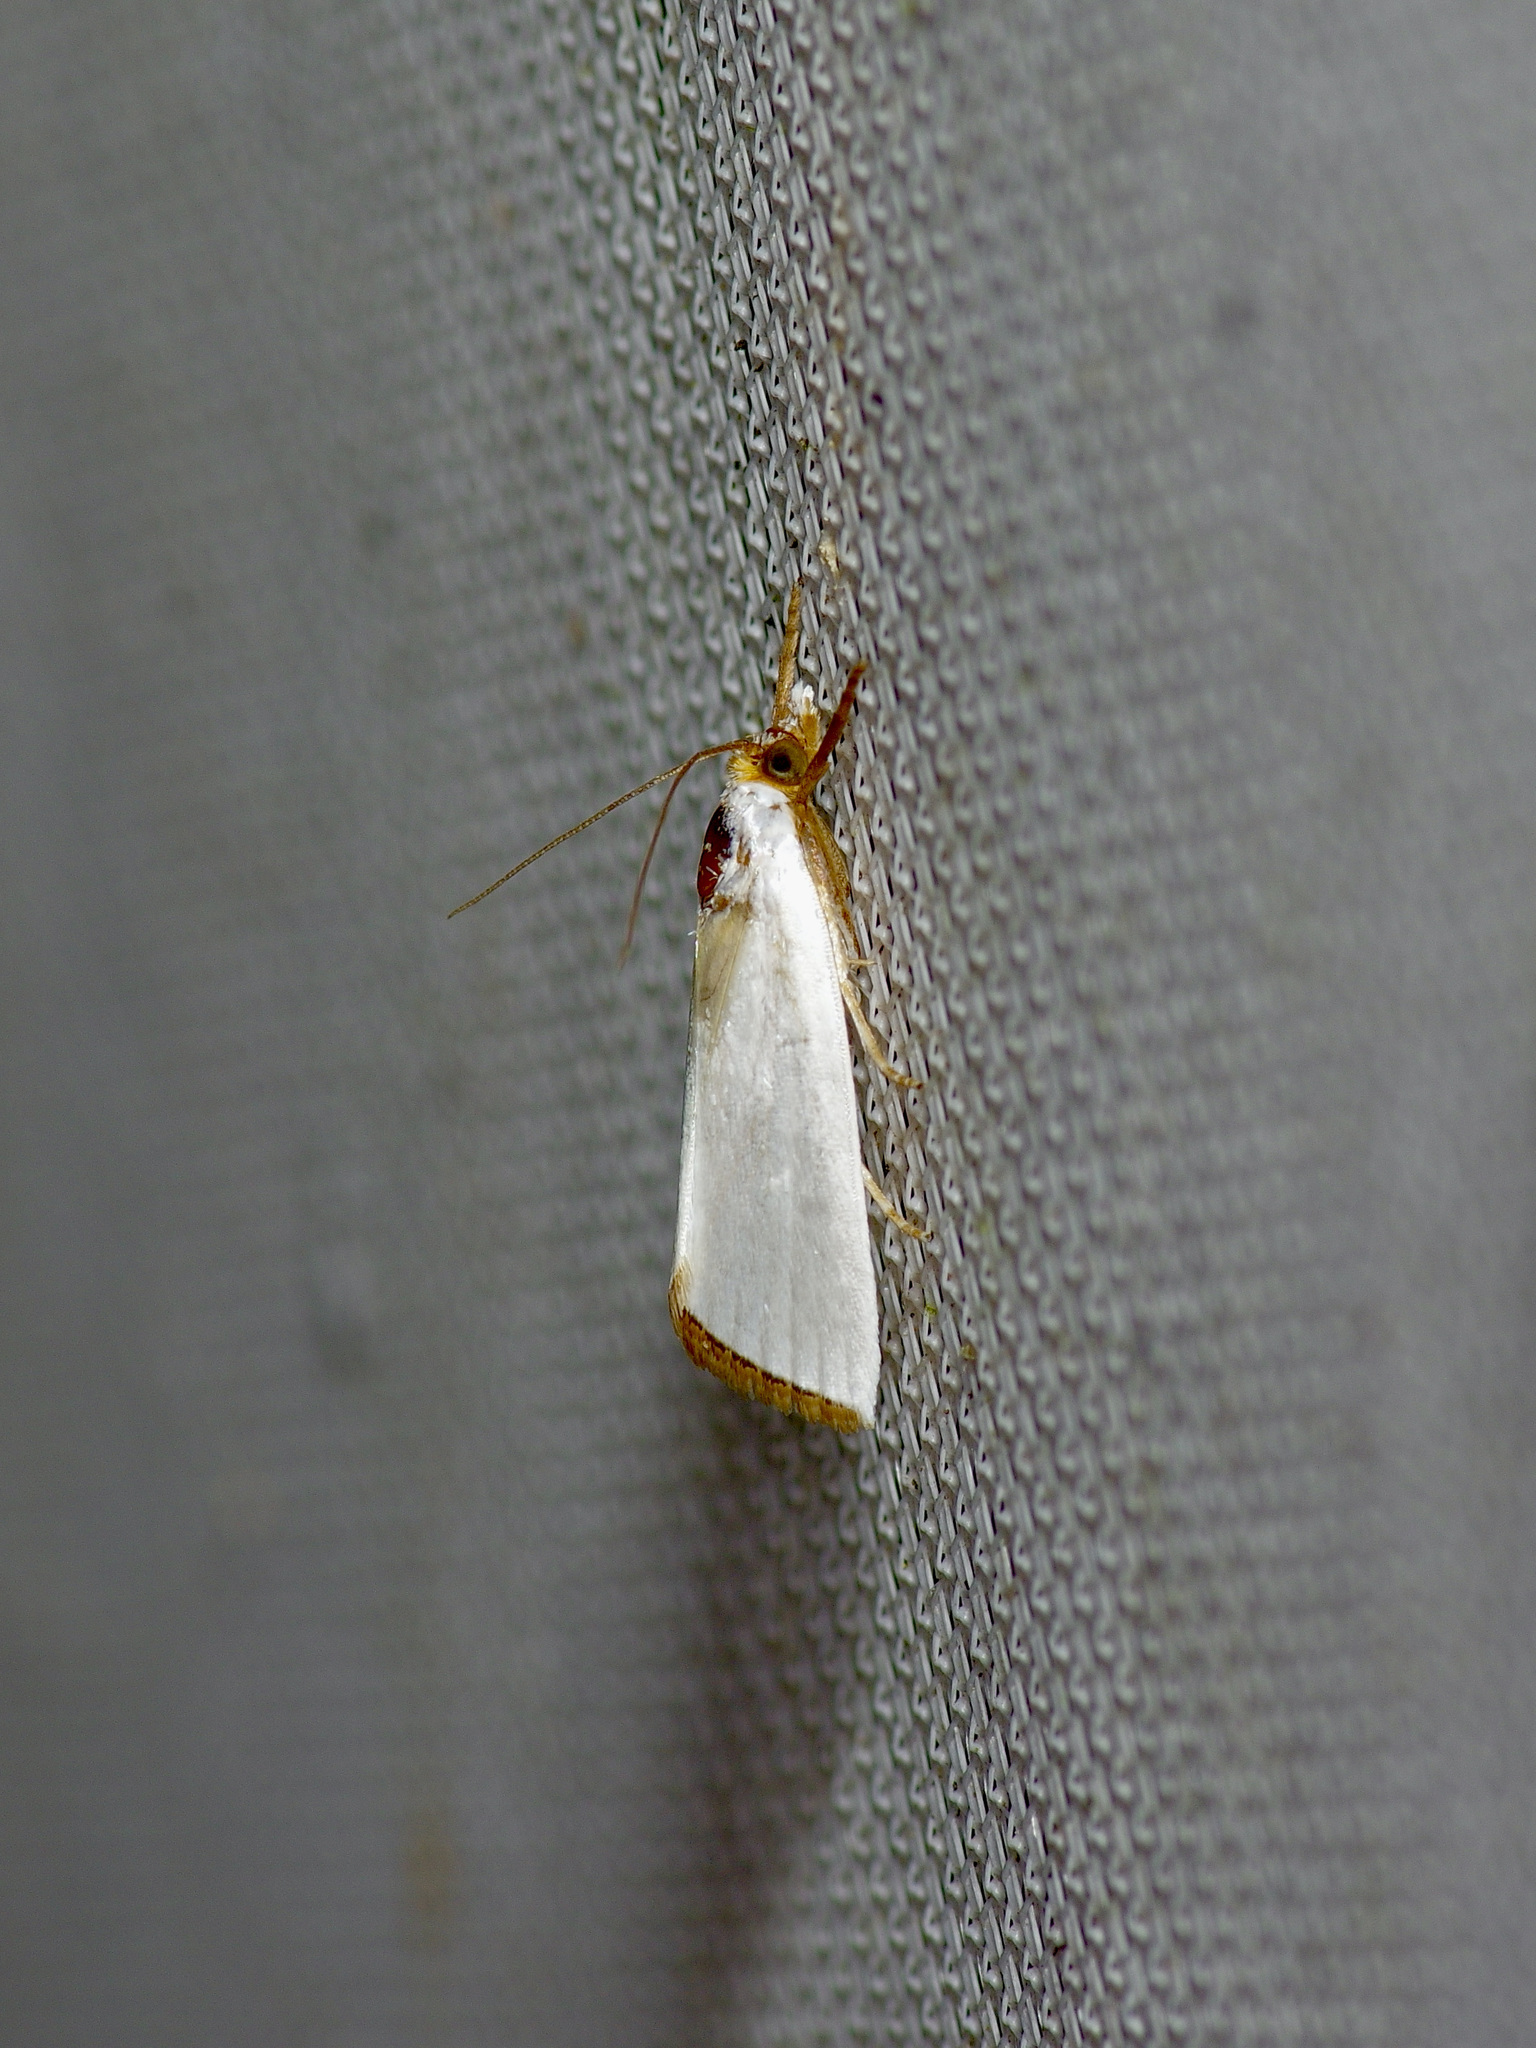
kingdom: Animalia
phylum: Arthropoda
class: Insecta
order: Lepidoptera
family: Crambidae
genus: Argyria
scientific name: Argyria nivalis
